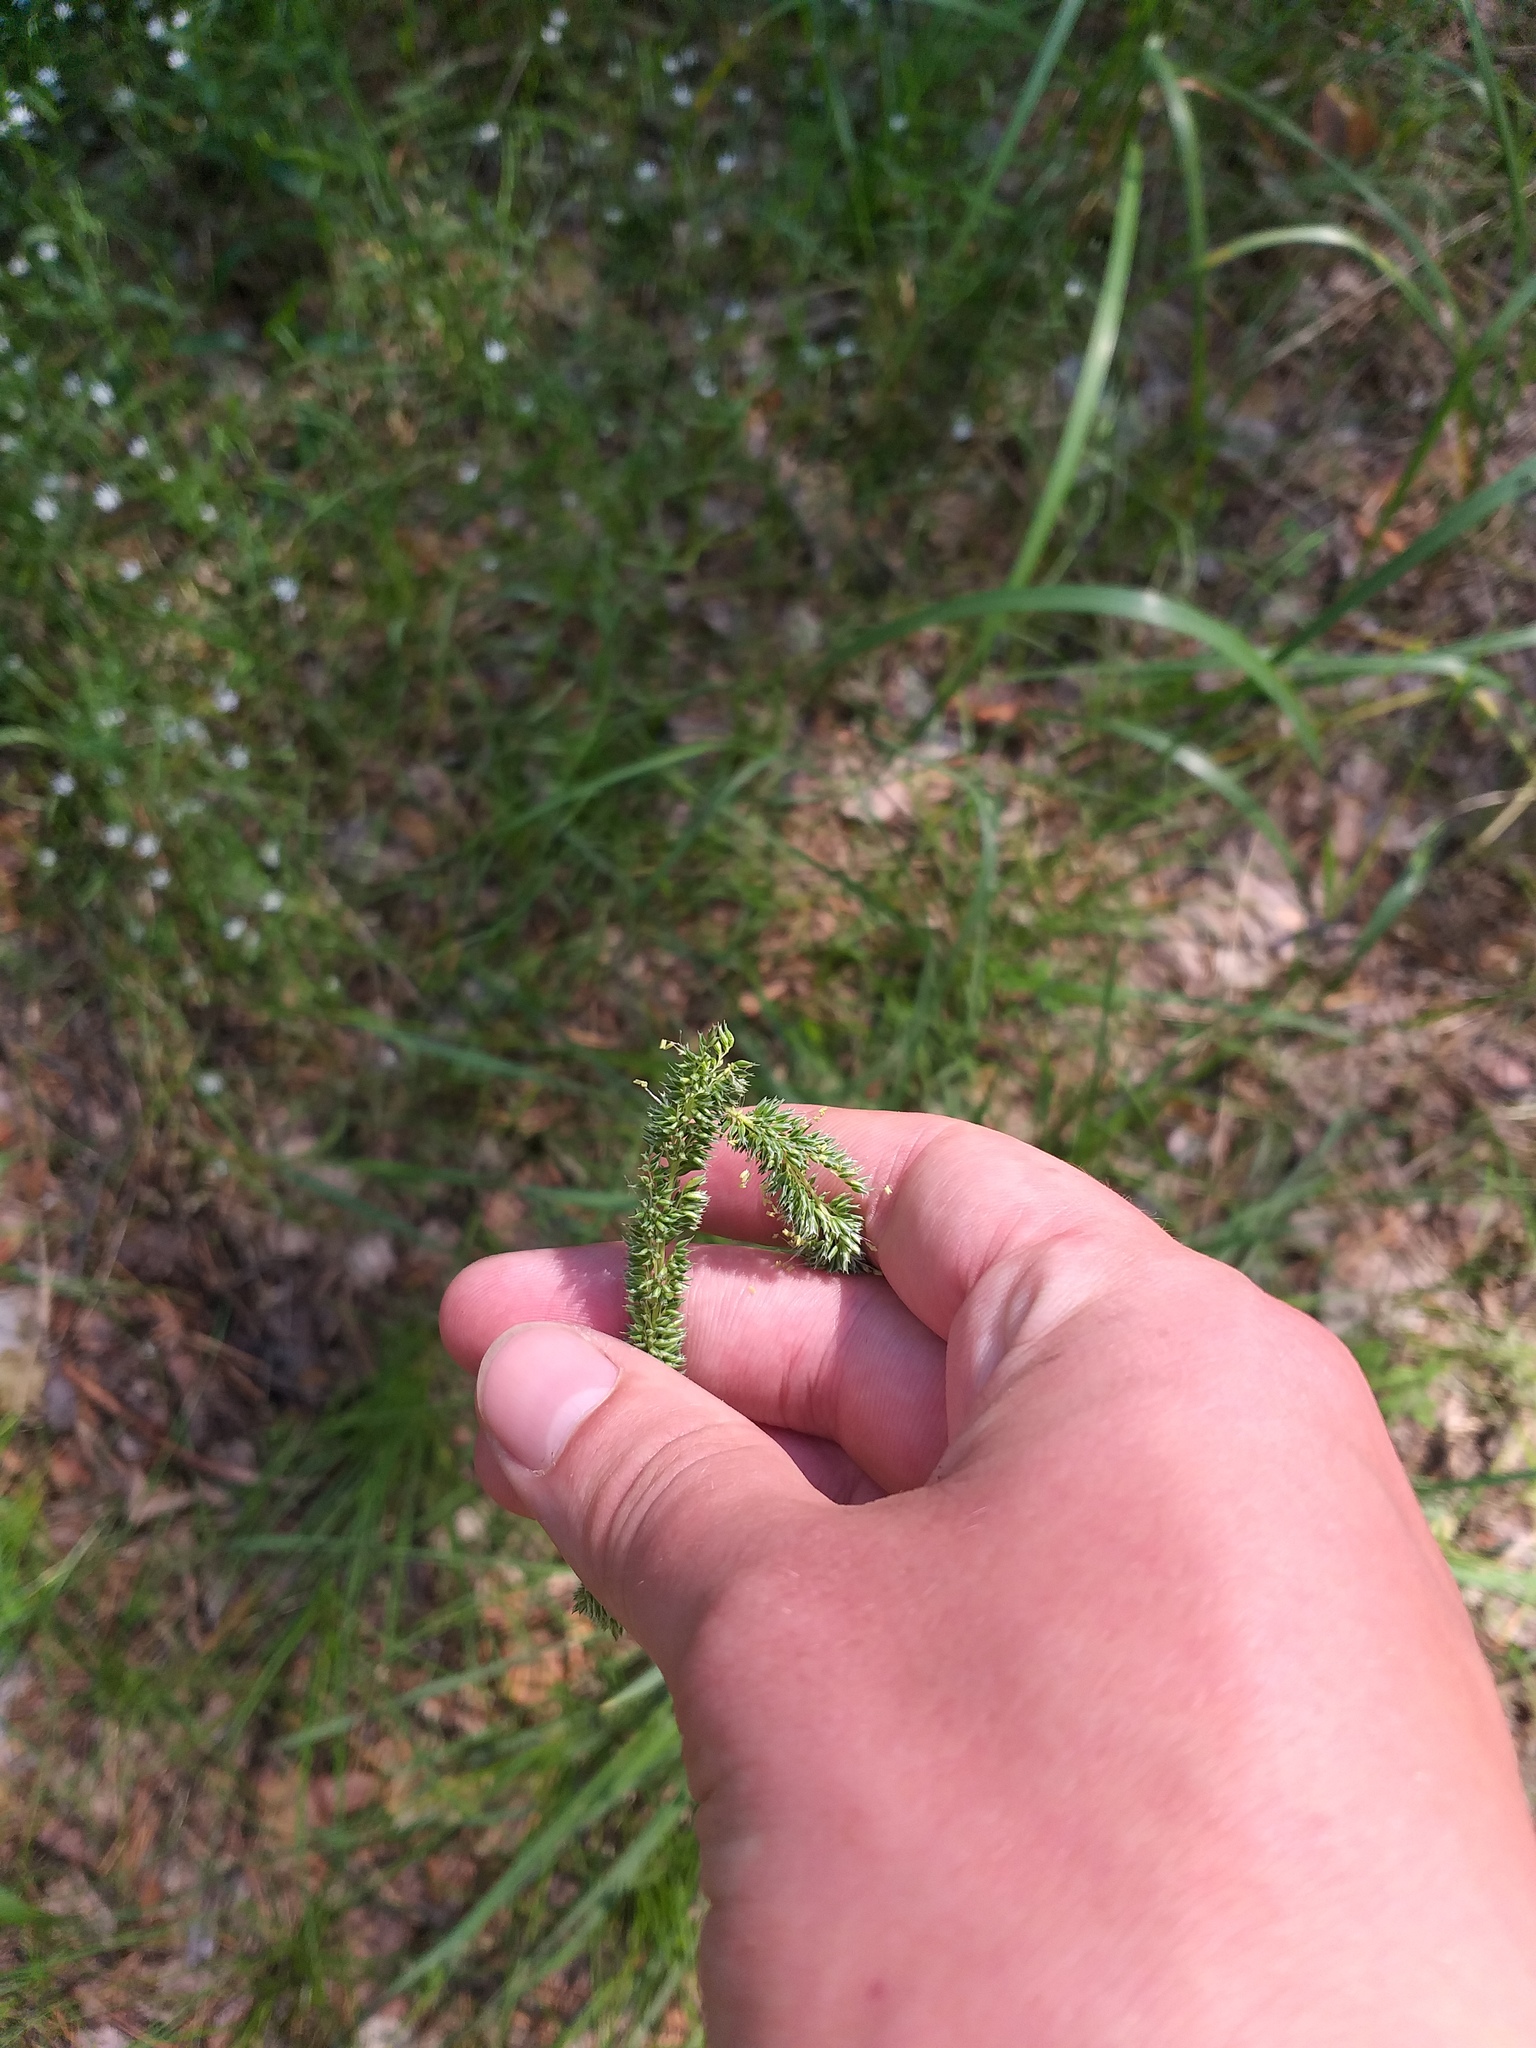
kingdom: Plantae
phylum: Tracheophyta
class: Liliopsida
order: Poales
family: Poaceae
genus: Phleum
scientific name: Phleum phleoides
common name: Purple-stem cat's-tail
